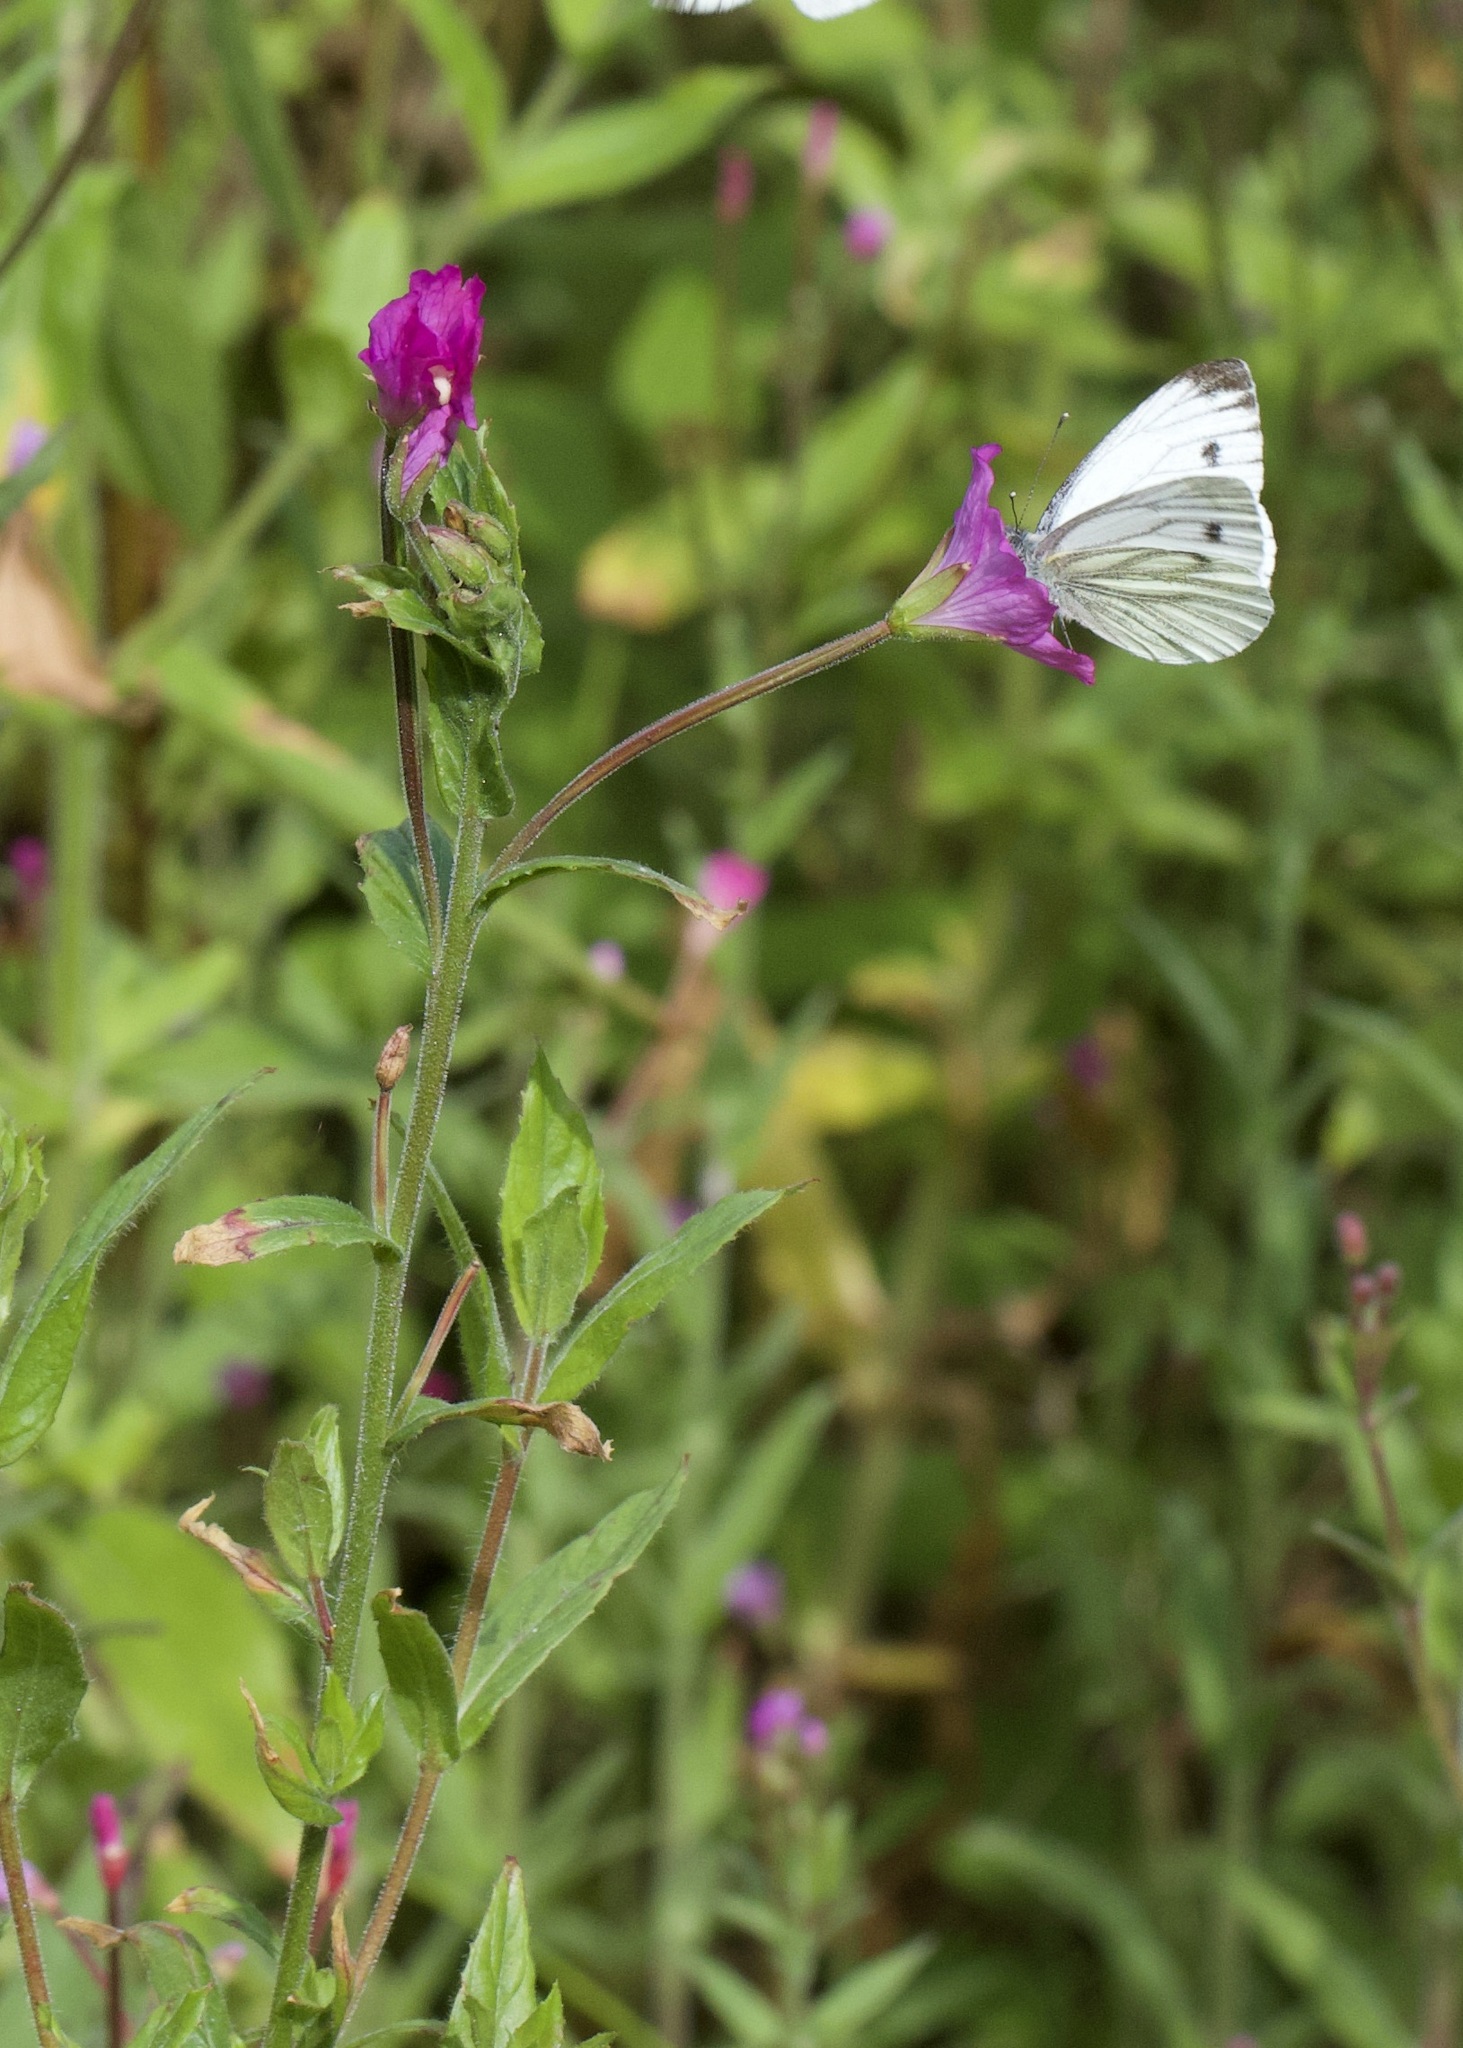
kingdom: Animalia
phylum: Arthropoda
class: Insecta
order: Lepidoptera
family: Pieridae
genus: Pieris
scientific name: Pieris napi
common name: Green-veined white
